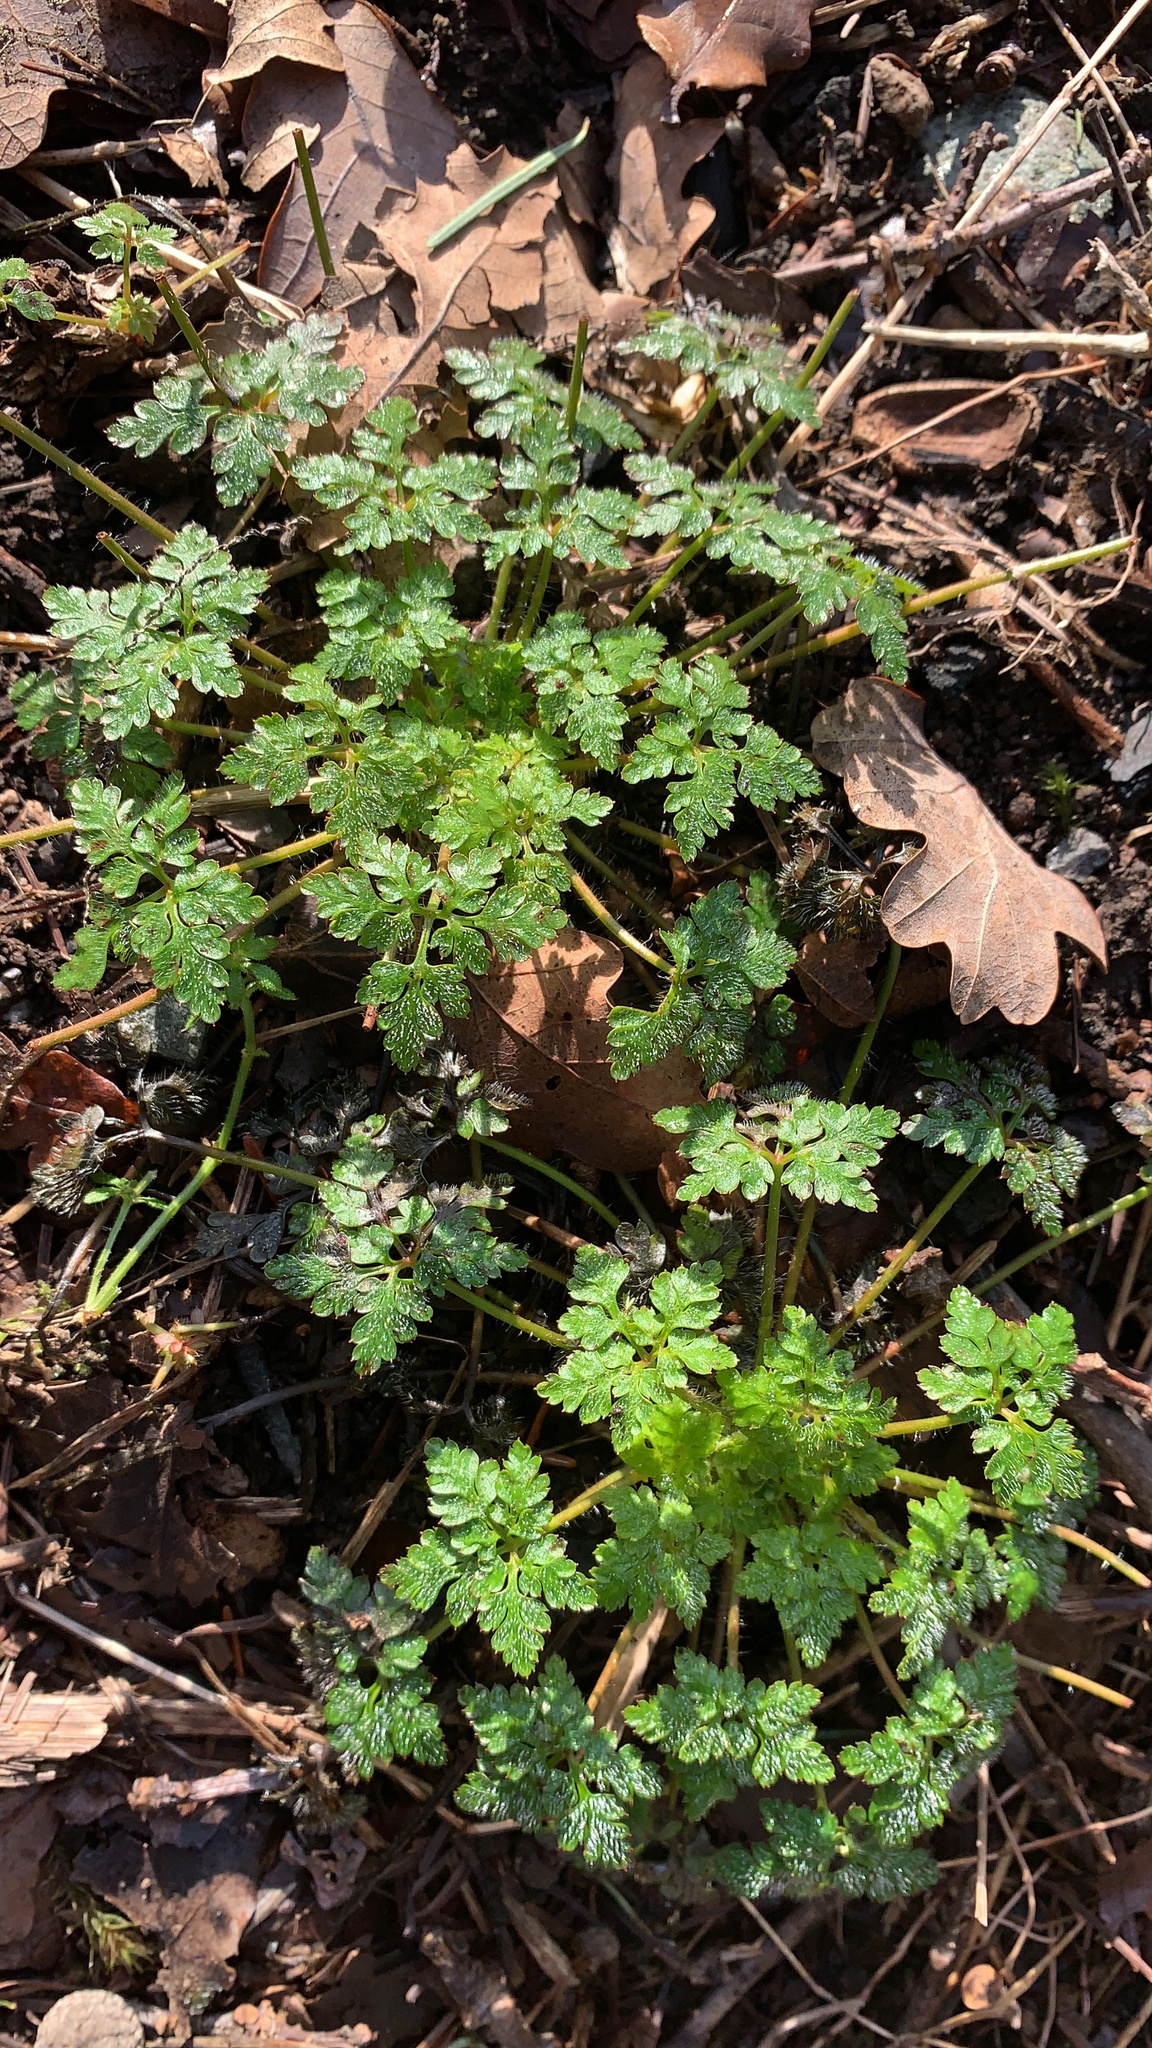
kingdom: Plantae
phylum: Tracheophyta
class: Magnoliopsida
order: Geraniales
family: Geraniaceae
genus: Geranium
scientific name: Geranium robertianum
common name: Herb-robert
